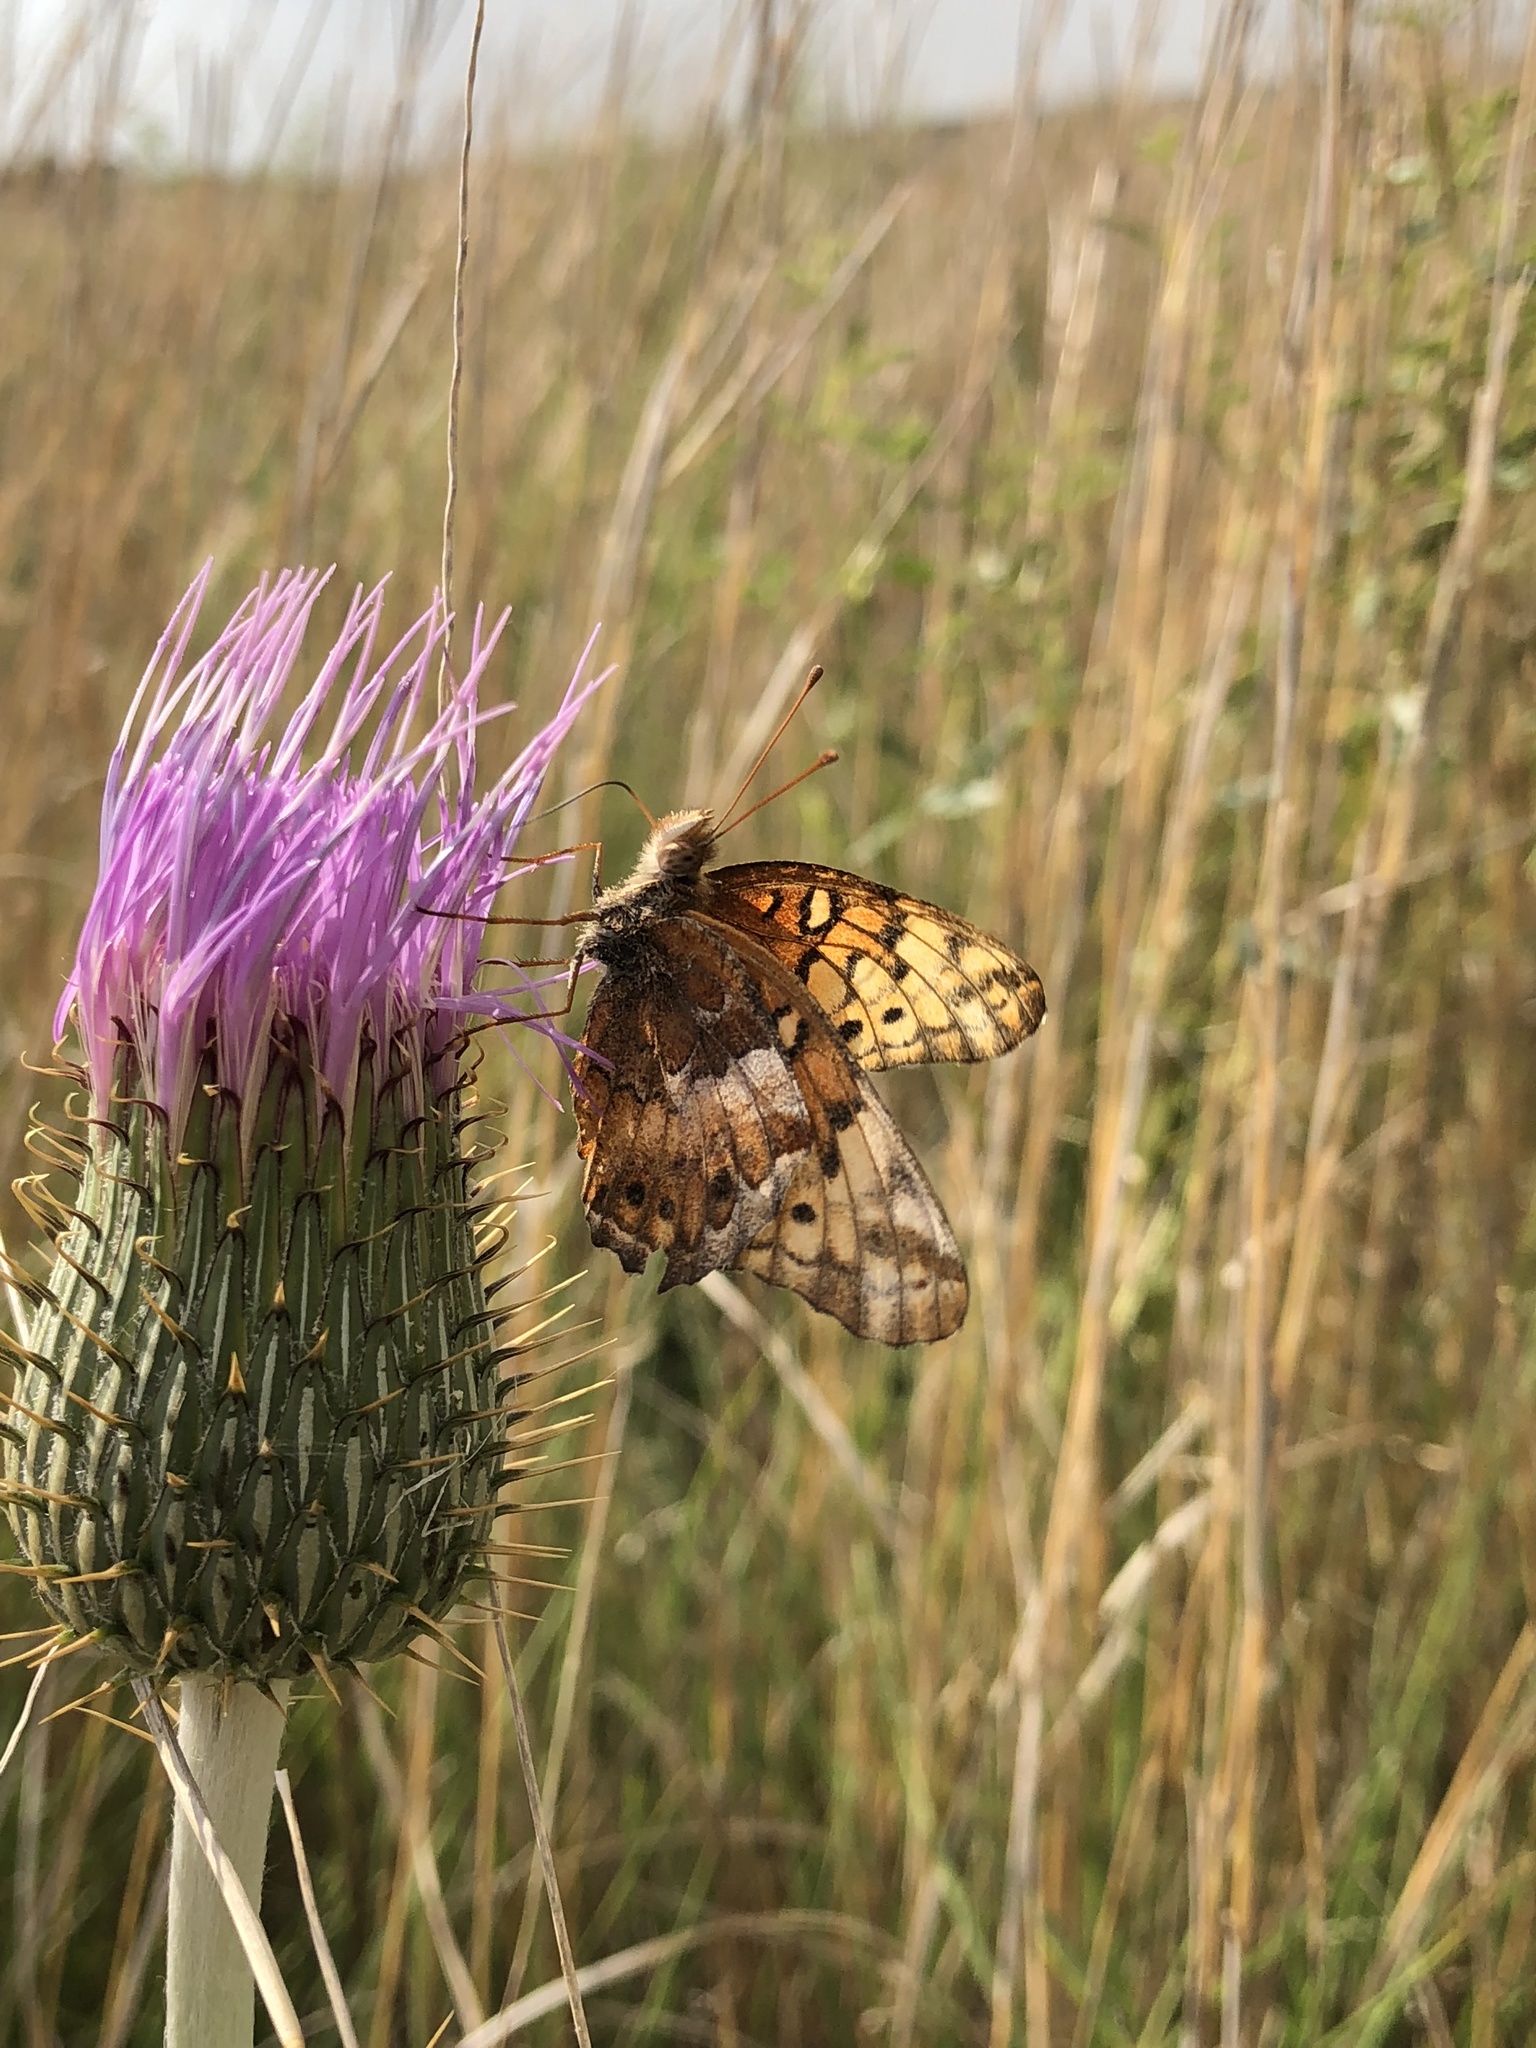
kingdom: Animalia
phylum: Arthropoda
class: Insecta
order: Lepidoptera
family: Nymphalidae
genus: Euptoieta
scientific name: Euptoieta claudia
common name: Variegated fritillary
